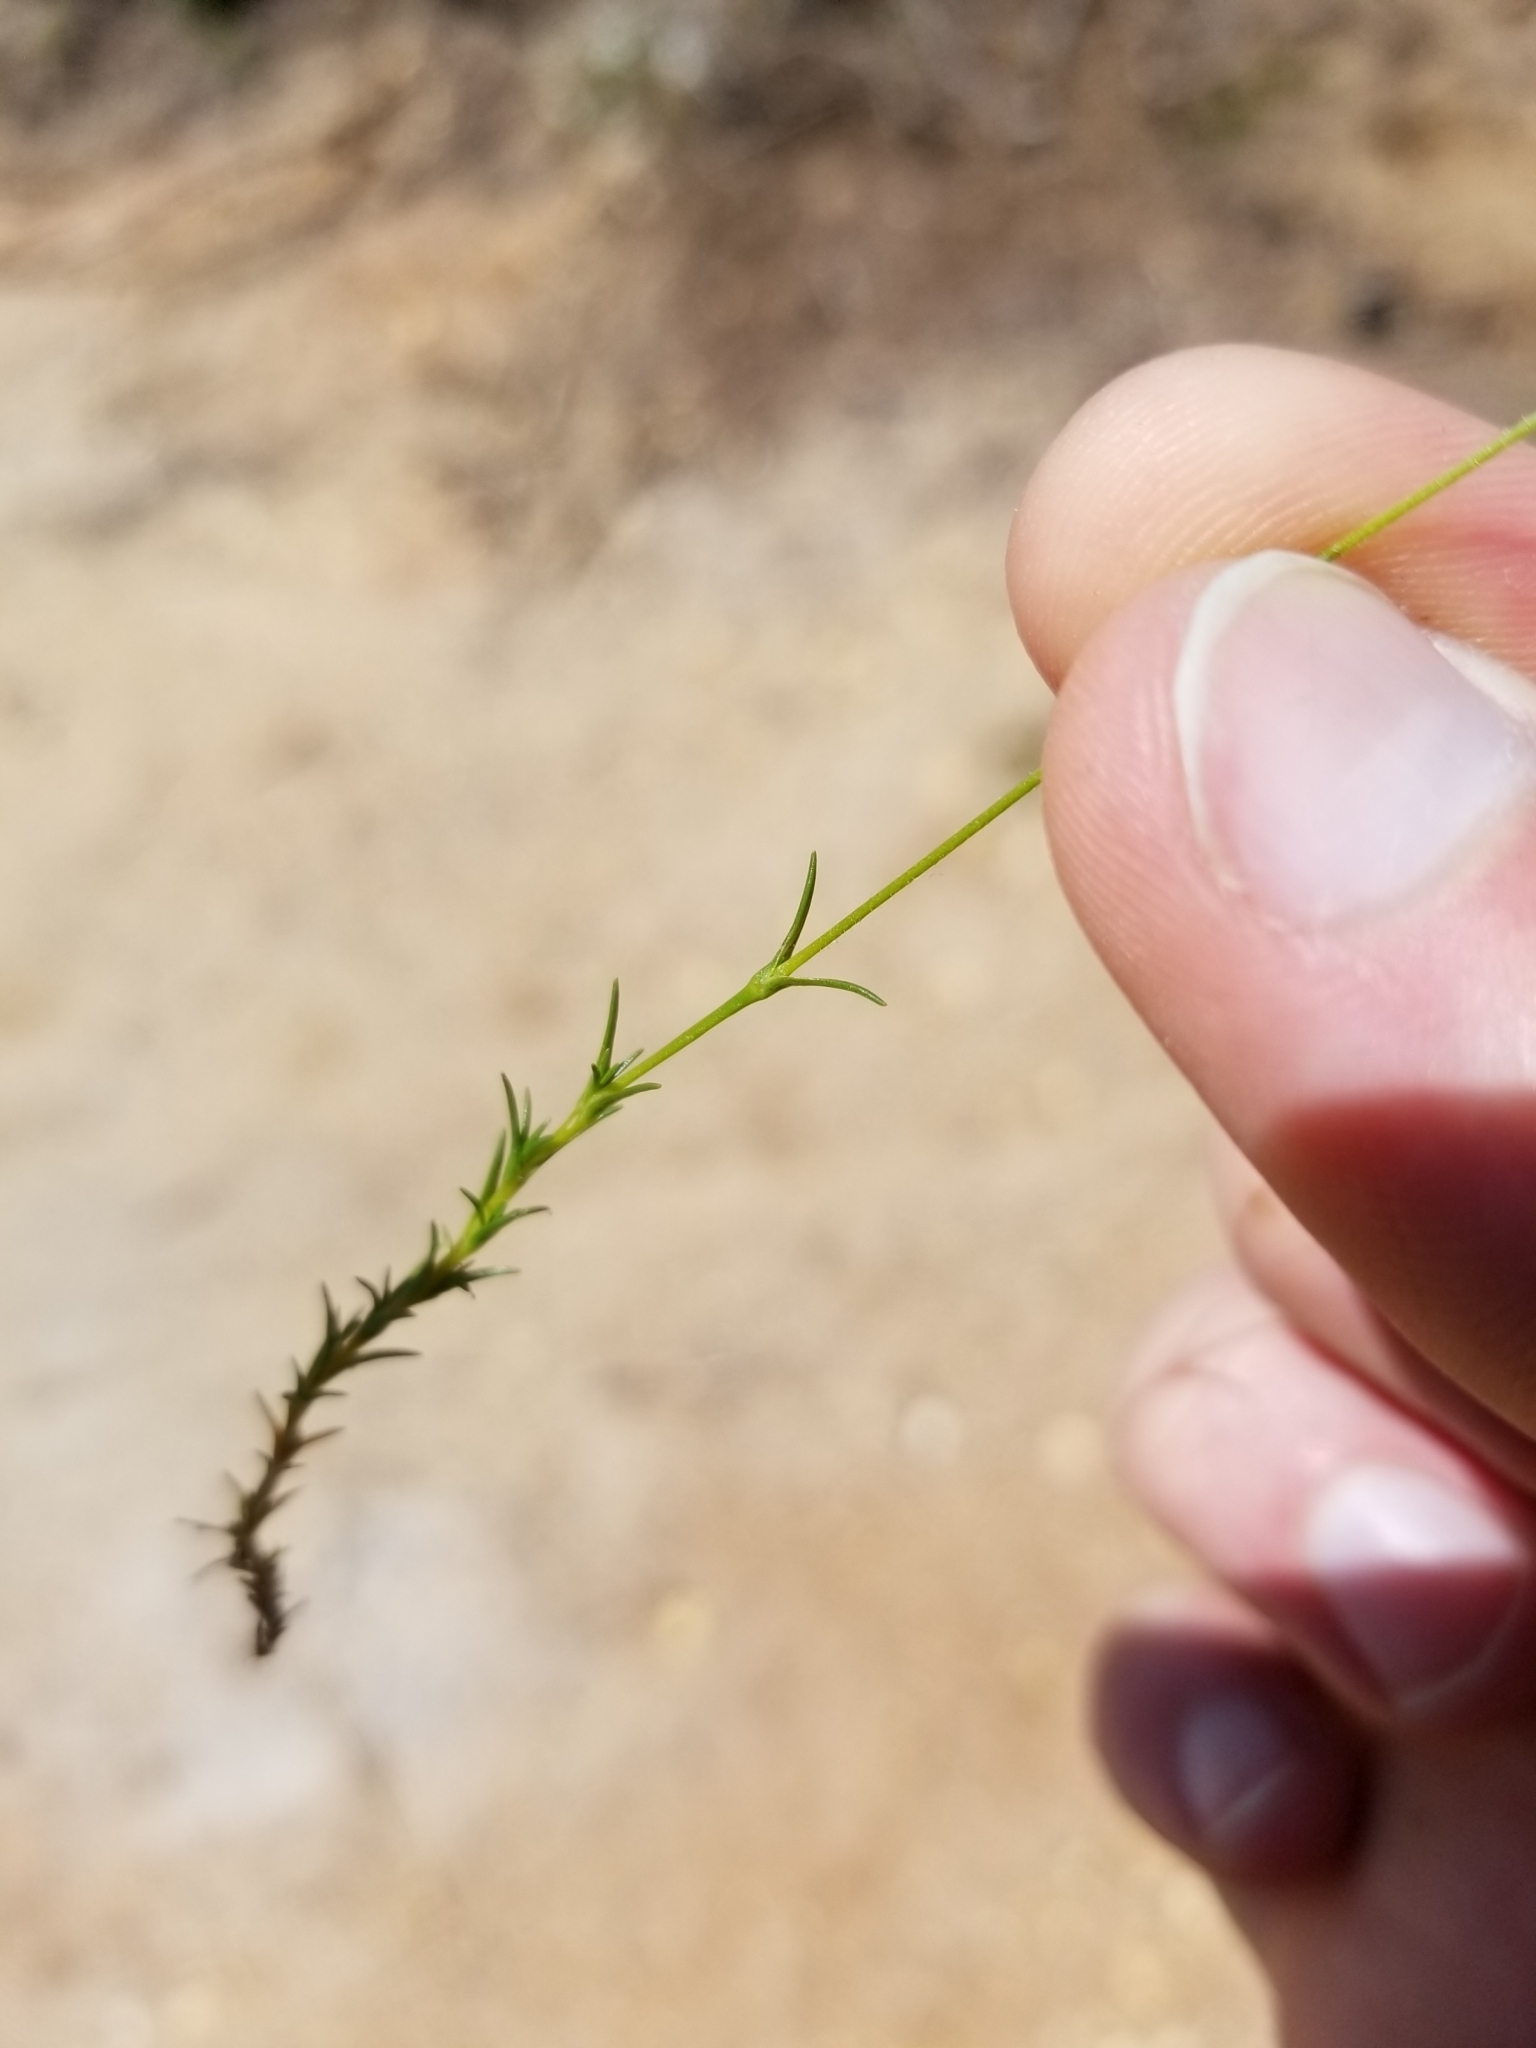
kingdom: Plantae
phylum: Tracheophyta
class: Magnoliopsida
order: Caryophyllales
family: Caryophyllaceae
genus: Geocarpon
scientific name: Geocarpon carolinianum
